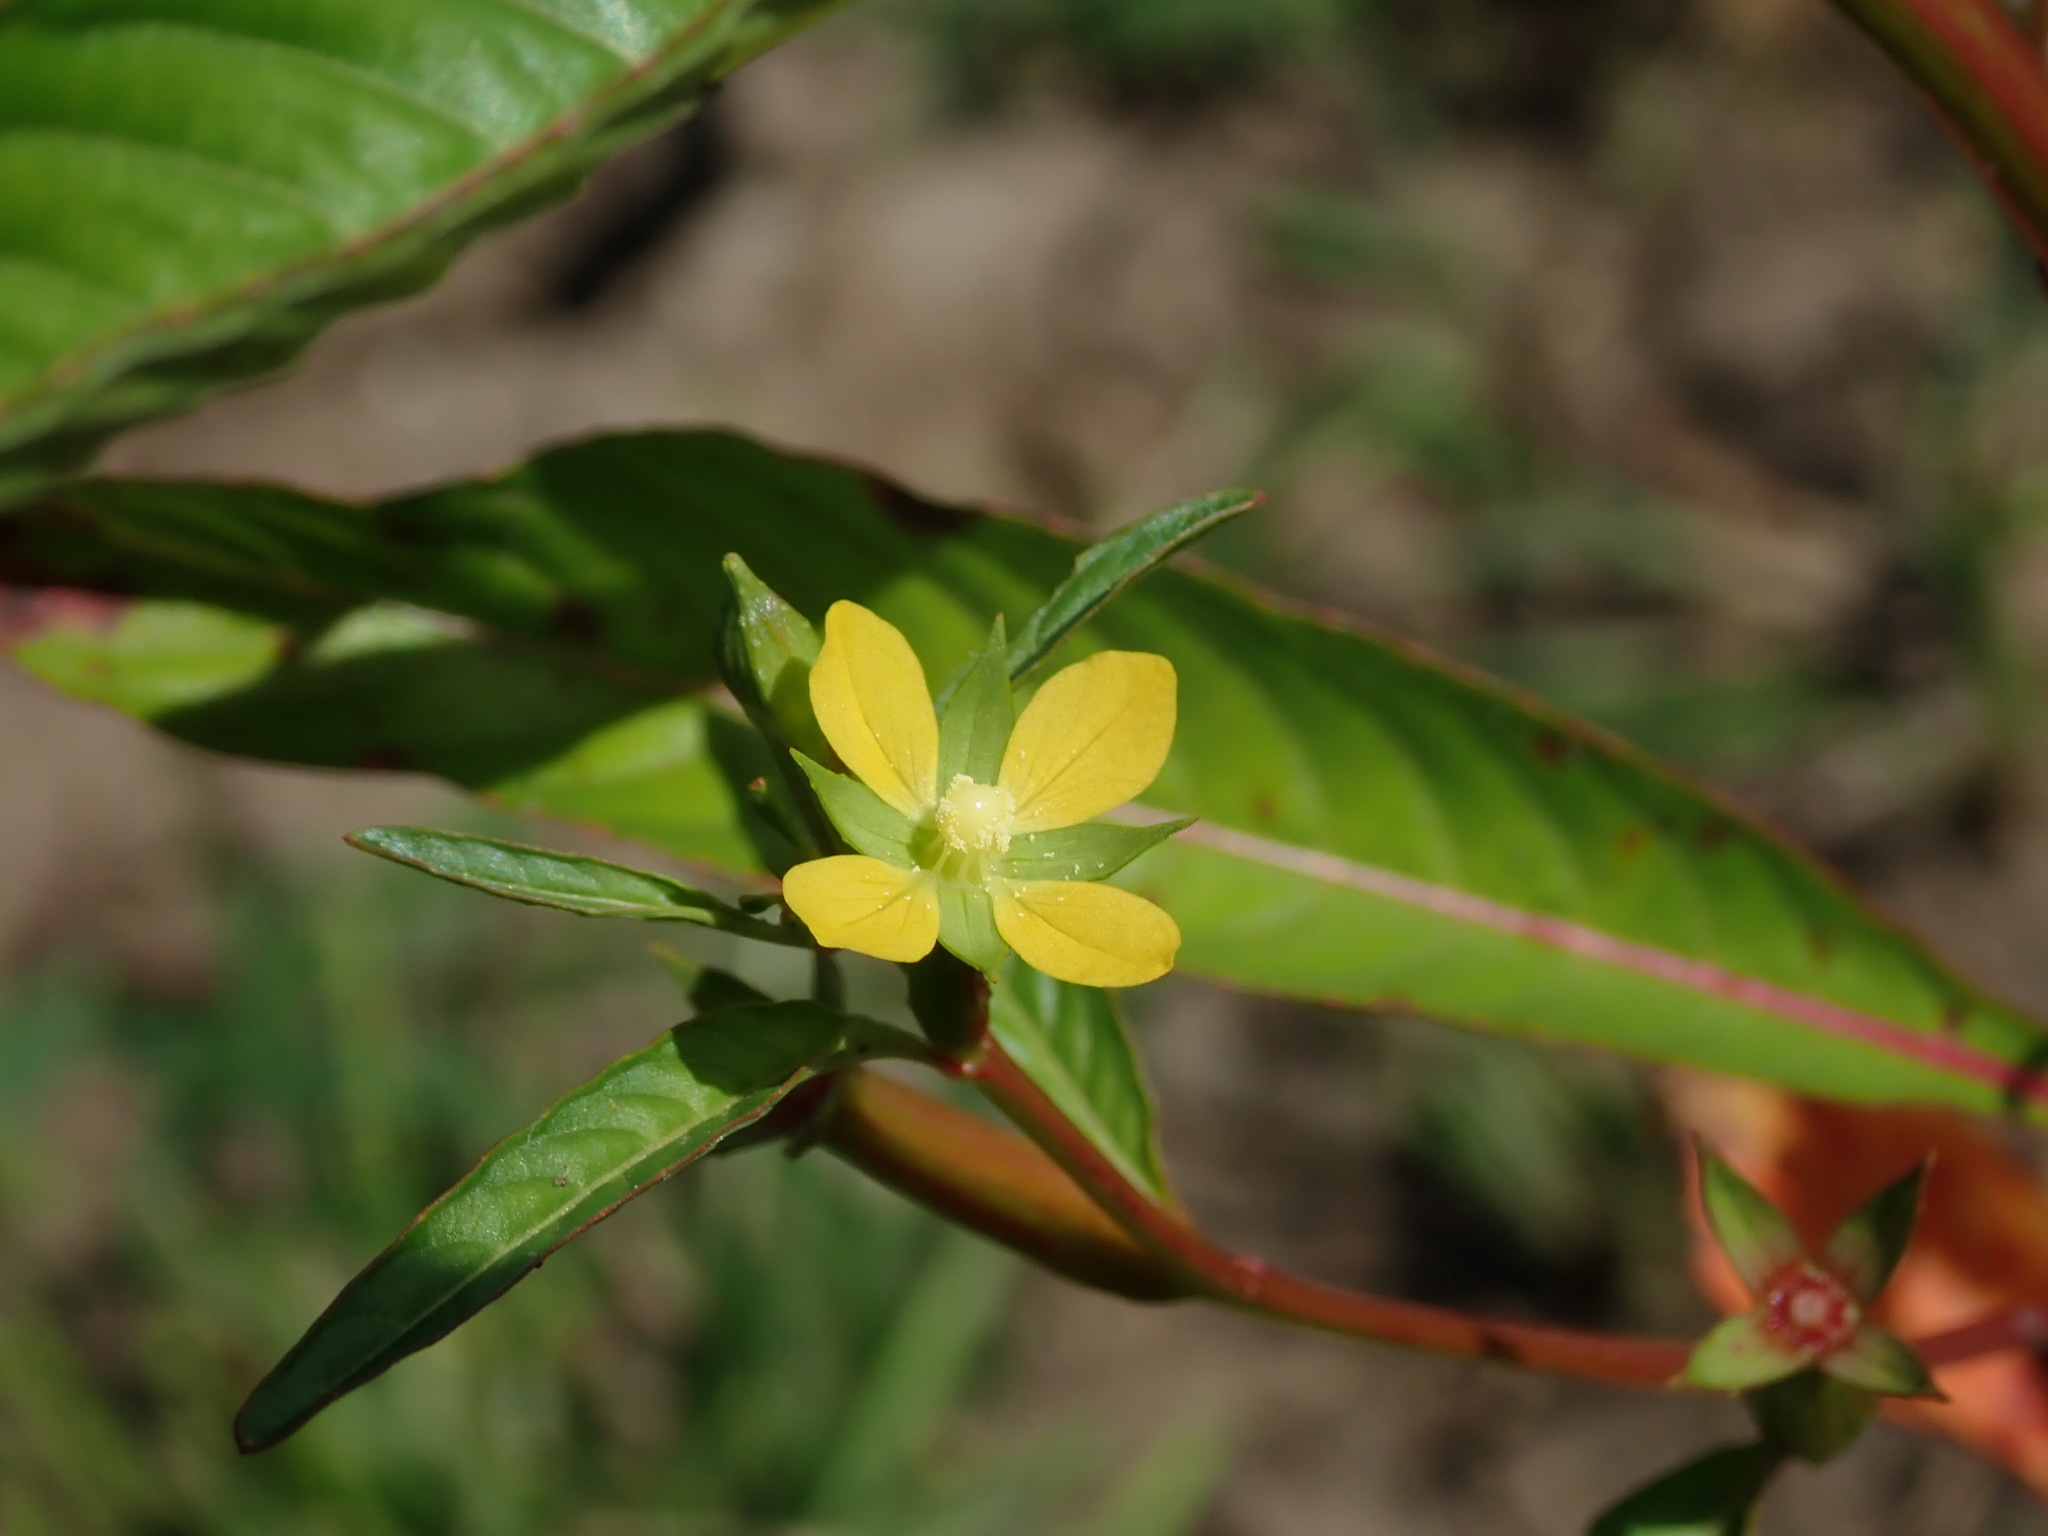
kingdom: Plantae
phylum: Tracheophyta
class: Magnoliopsida
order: Myrtales
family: Onagraceae
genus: Ludwigia
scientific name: Ludwigia erecta
